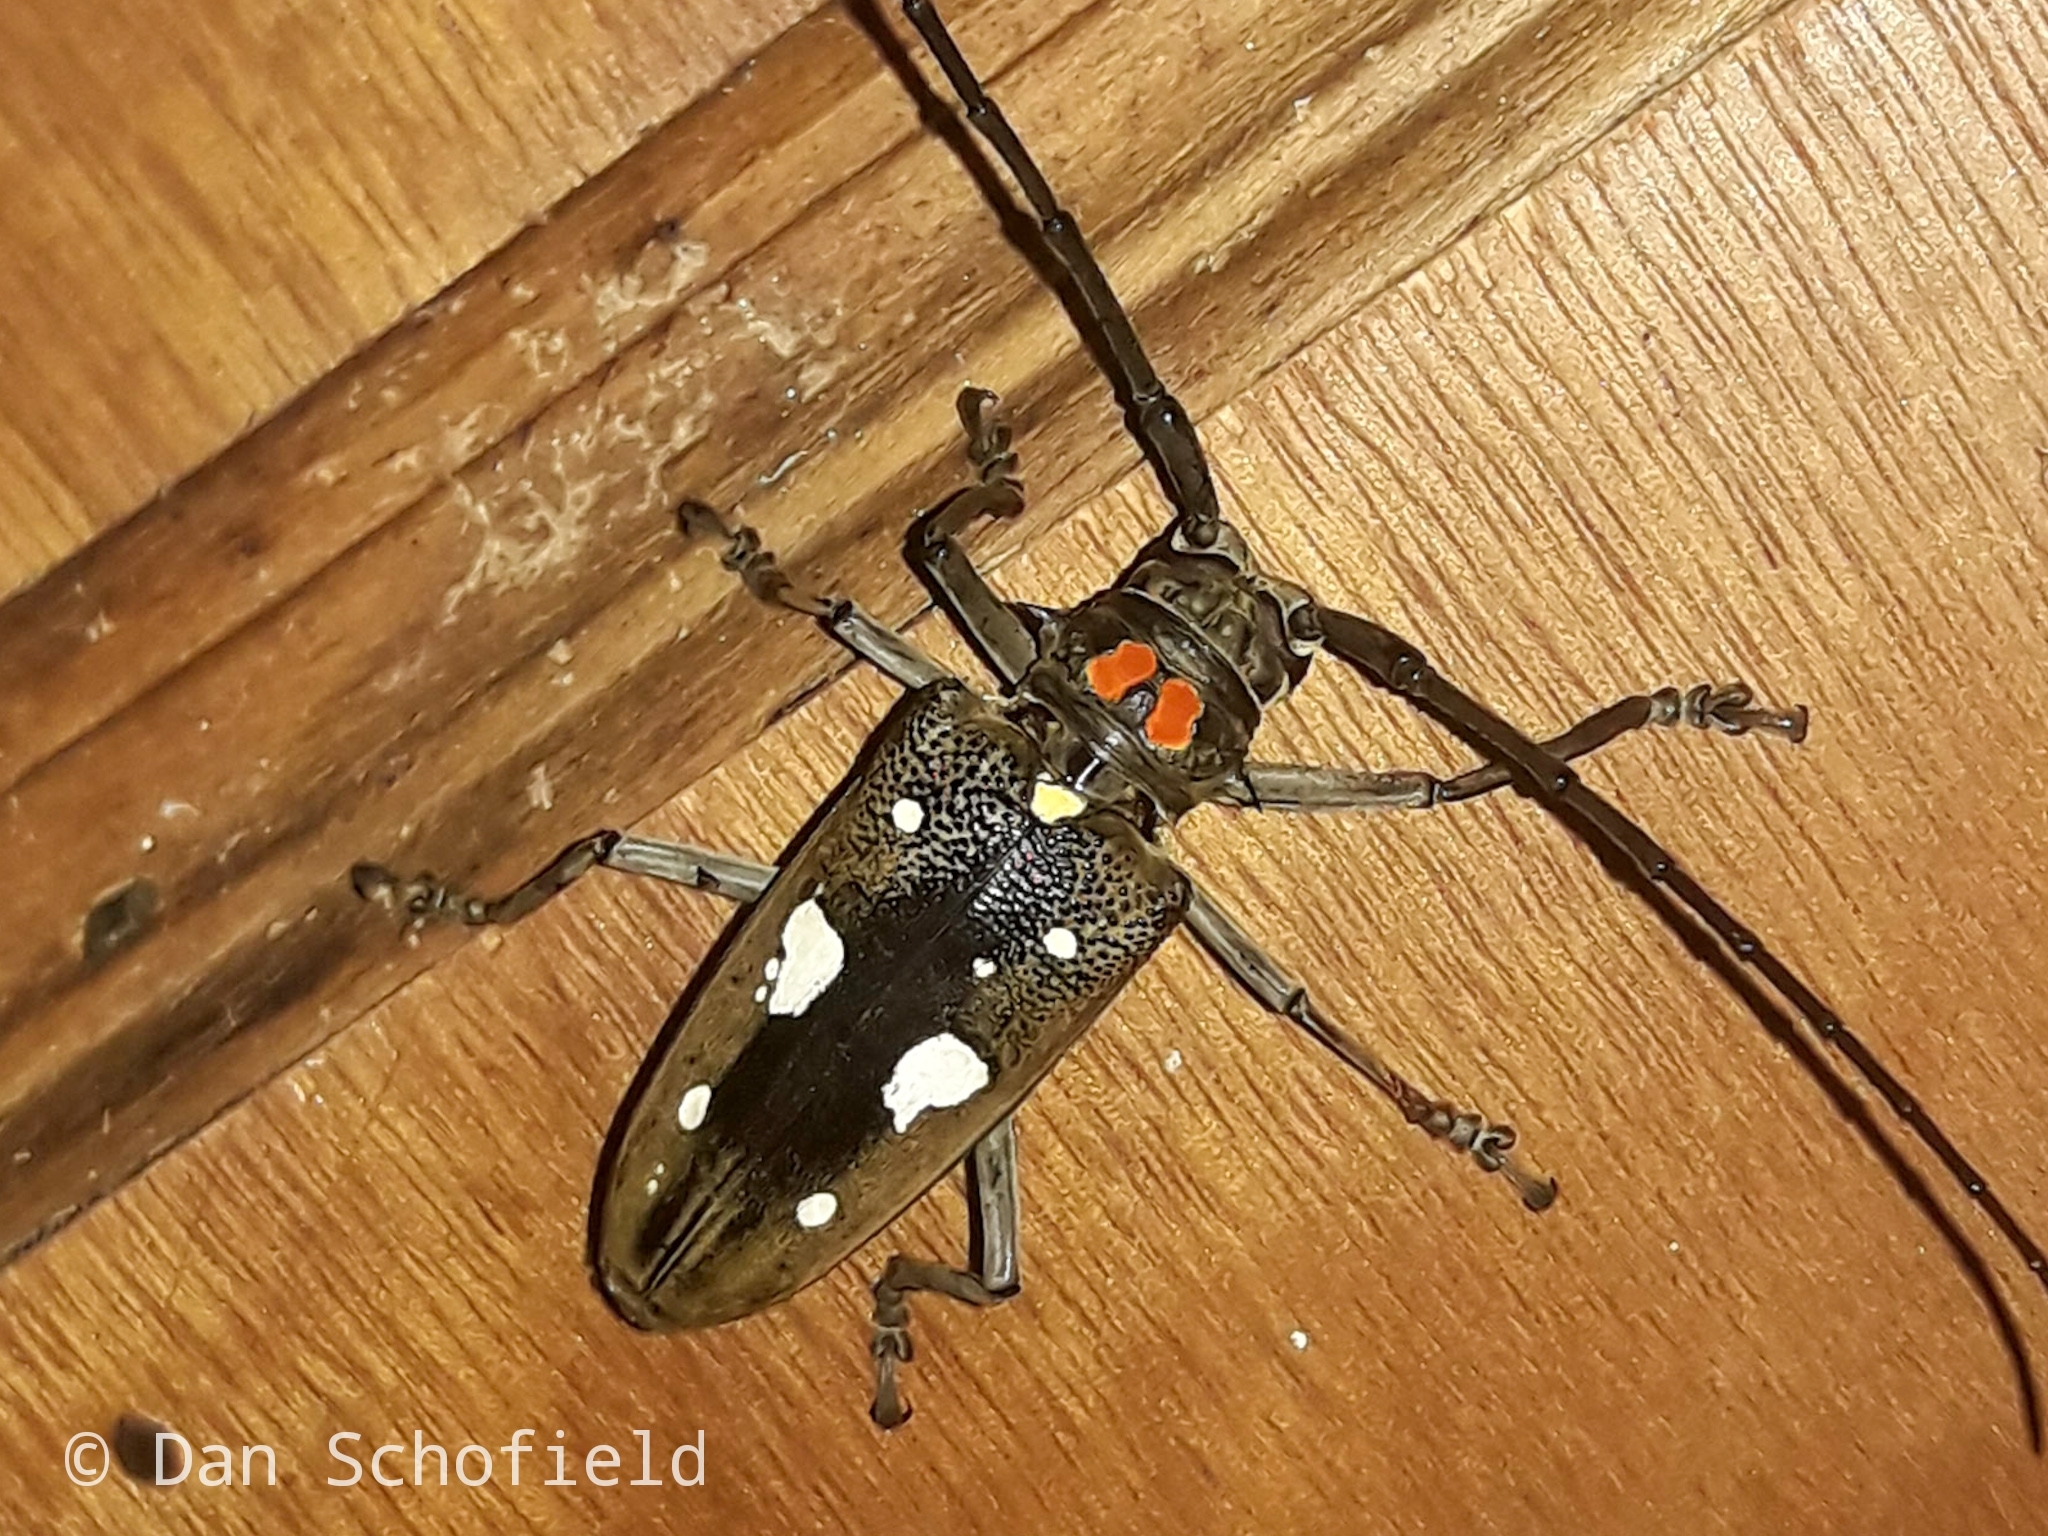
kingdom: Animalia
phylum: Arthropoda
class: Insecta
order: Coleoptera
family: Cerambycidae
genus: Batocera
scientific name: Batocera celebiana
